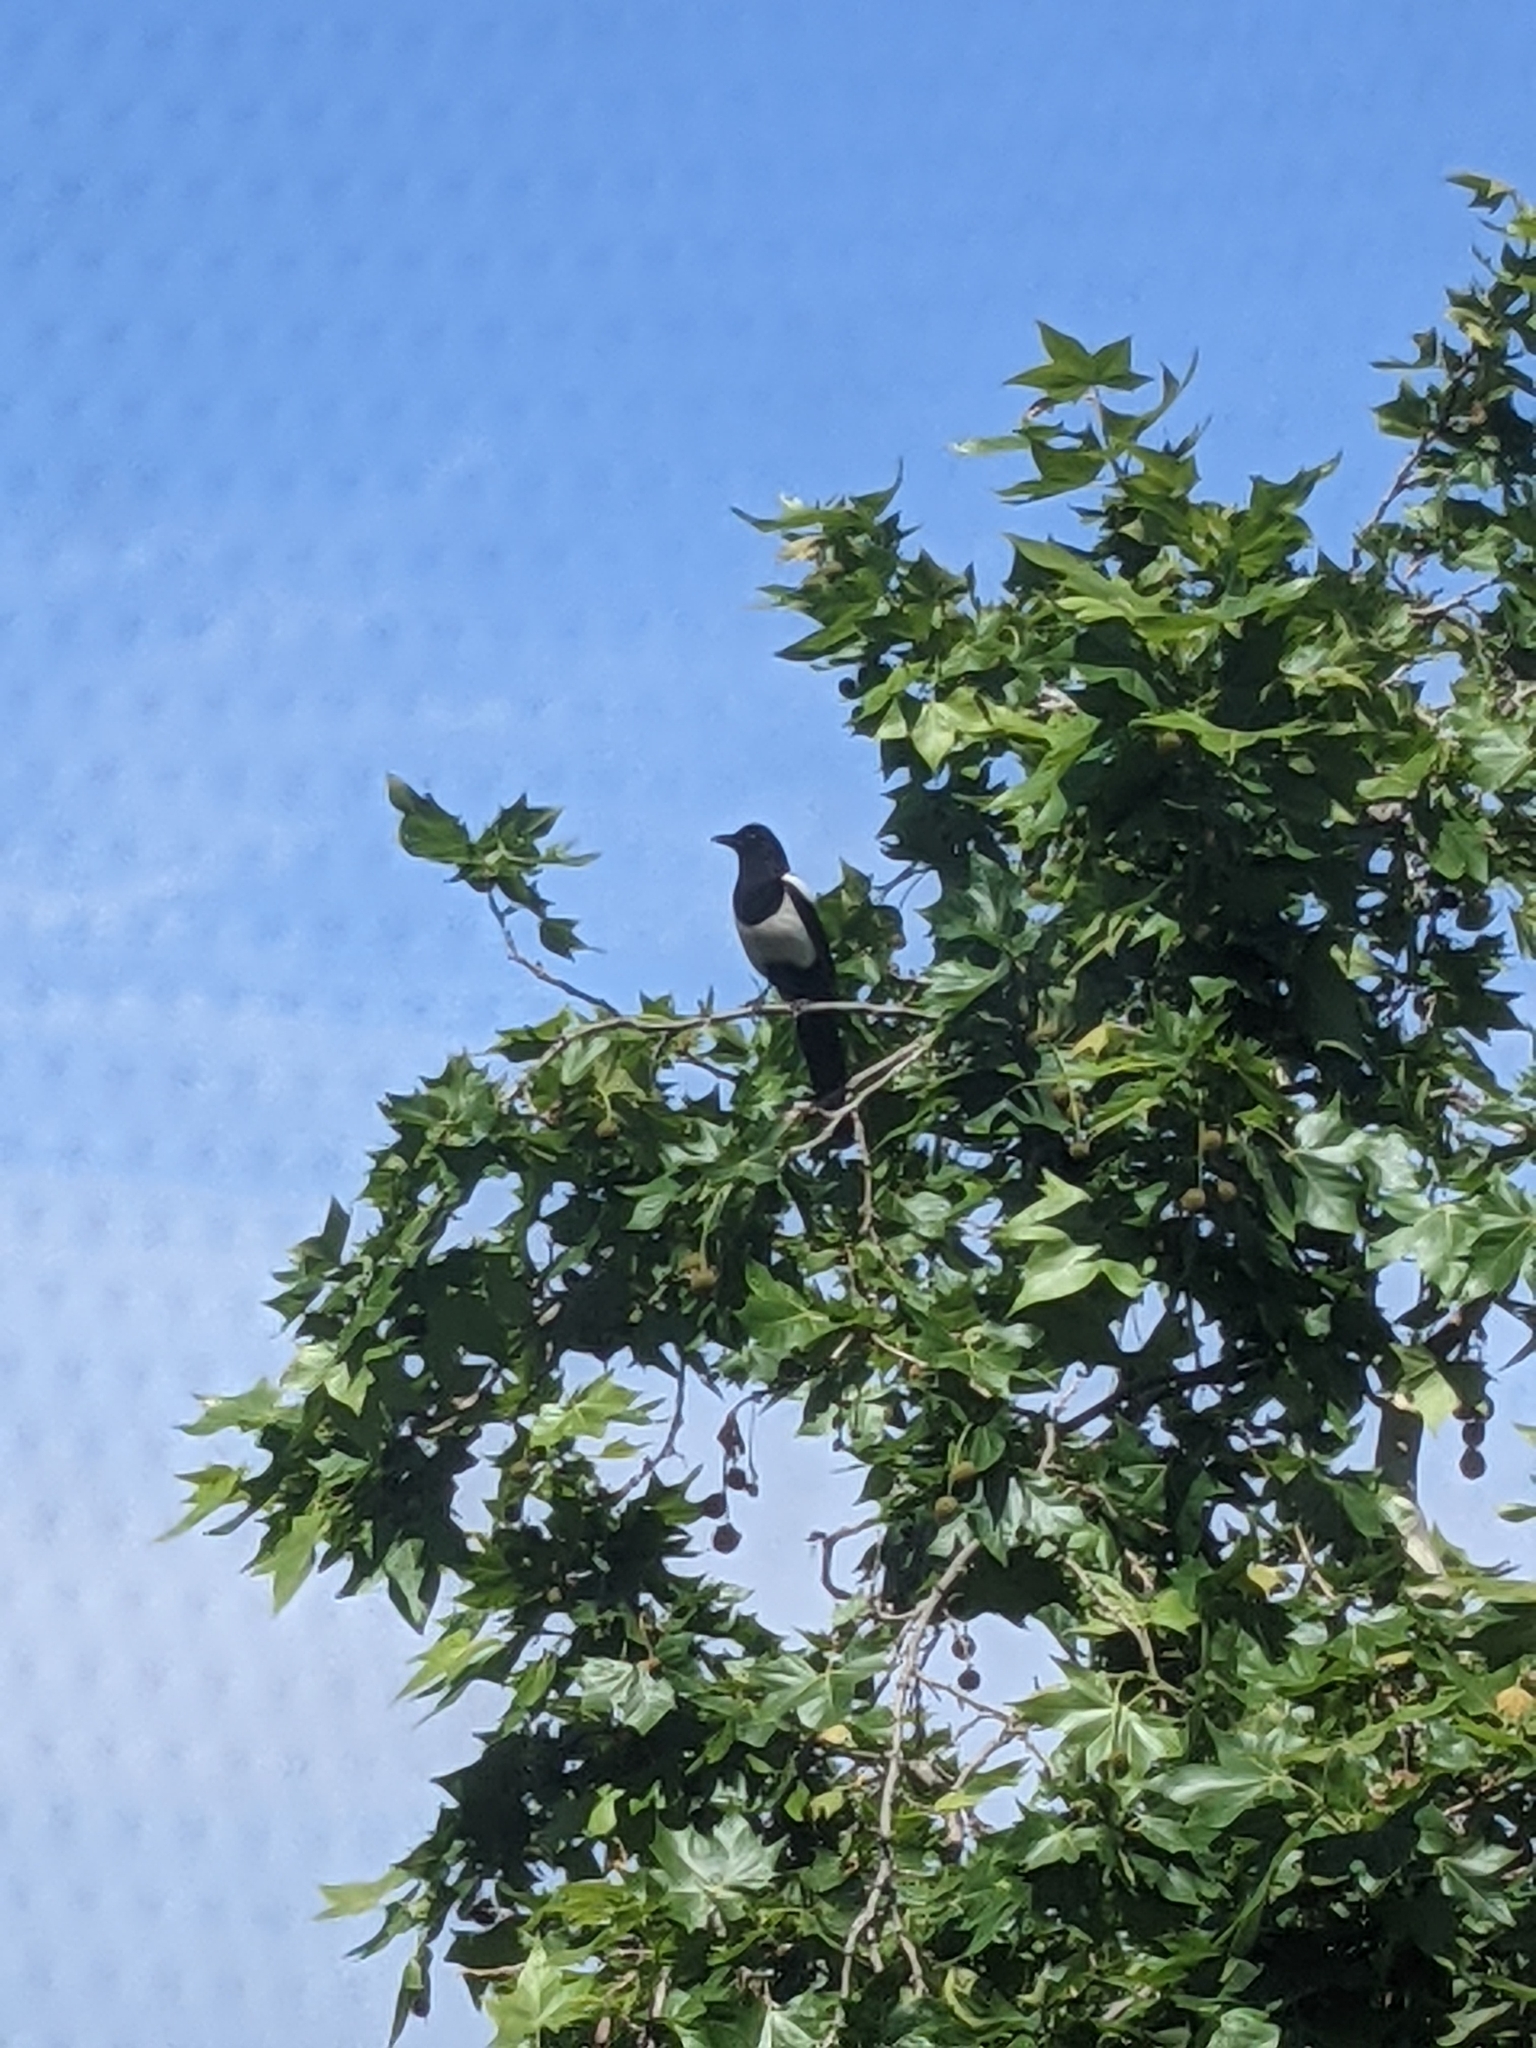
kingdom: Animalia
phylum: Chordata
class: Aves
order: Passeriformes
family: Corvidae
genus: Pica
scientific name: Pica pica
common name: Eurasian magpie
